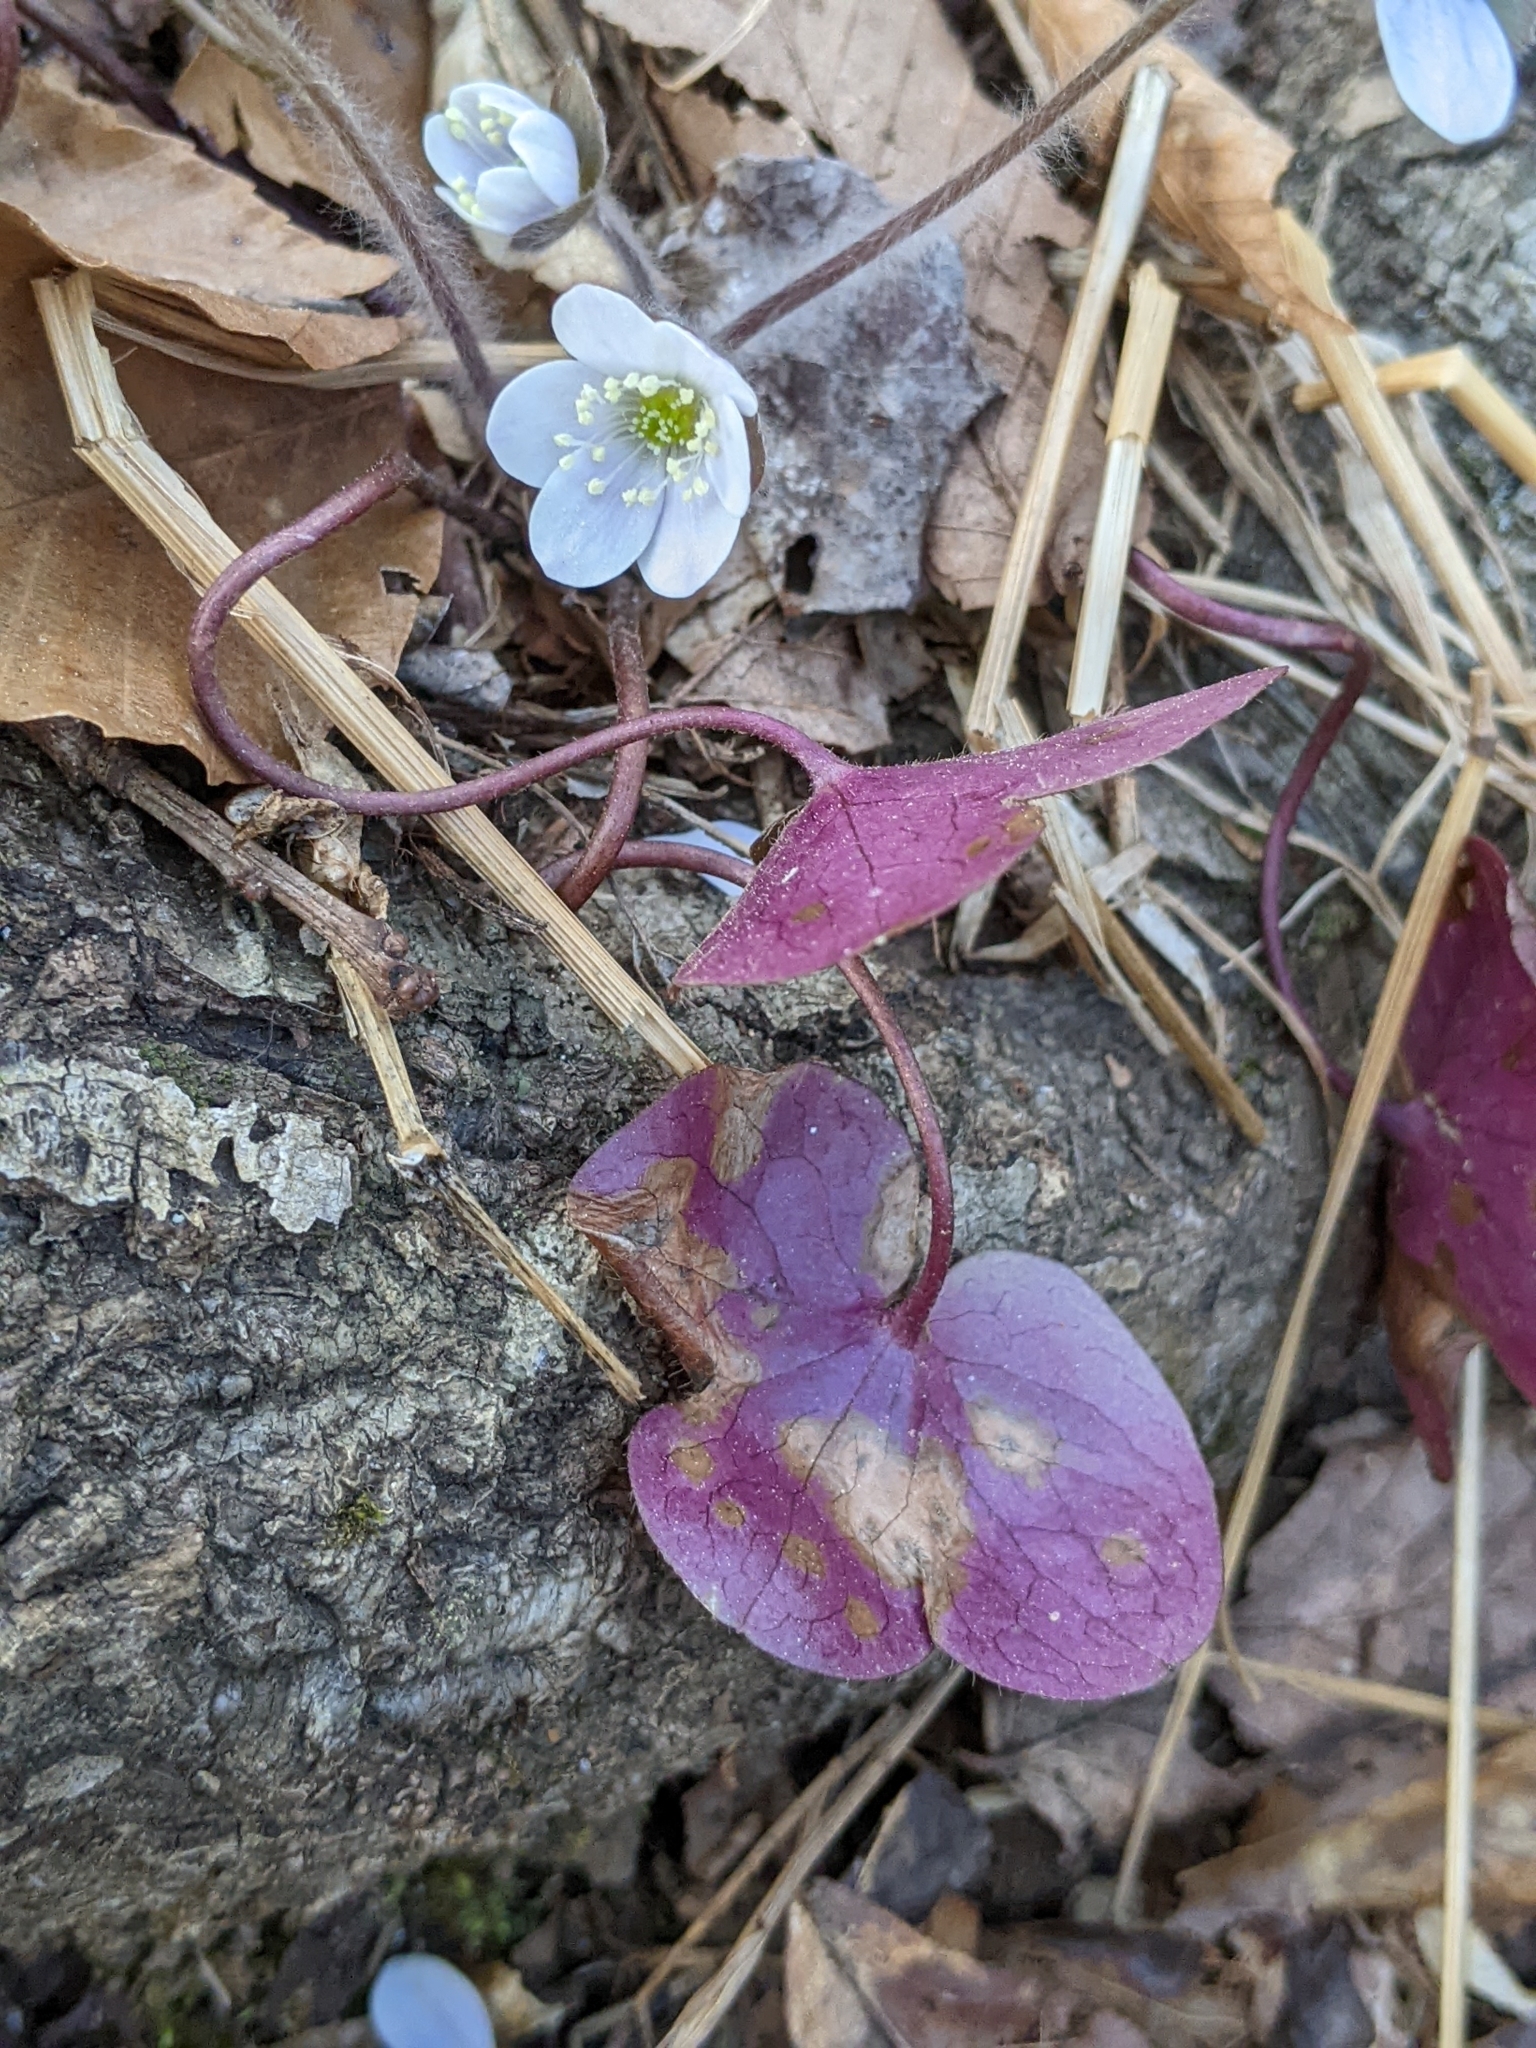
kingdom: Plantae
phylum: Tracheophyta
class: Magnoliopsida
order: Ranunculales
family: Ranunculaceae
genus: Hepatica
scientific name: Hepatica americana
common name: American hepatica
